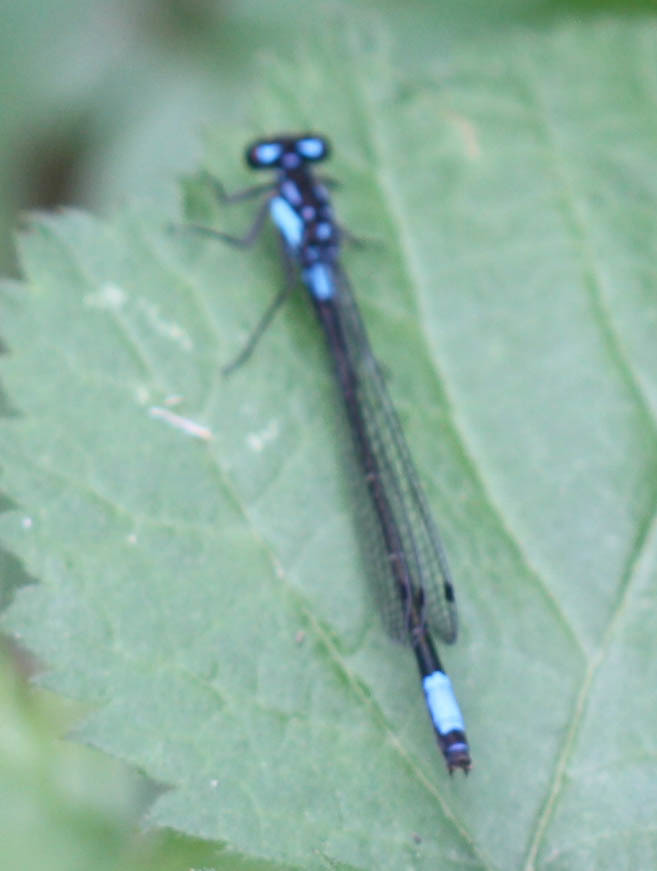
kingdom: Animalia
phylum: Arthropoda
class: Insecta
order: Odonata
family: Coenagrionidae
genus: Zoniagrion
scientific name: Zoniagrion exclamationis
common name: Exclamation damsel
